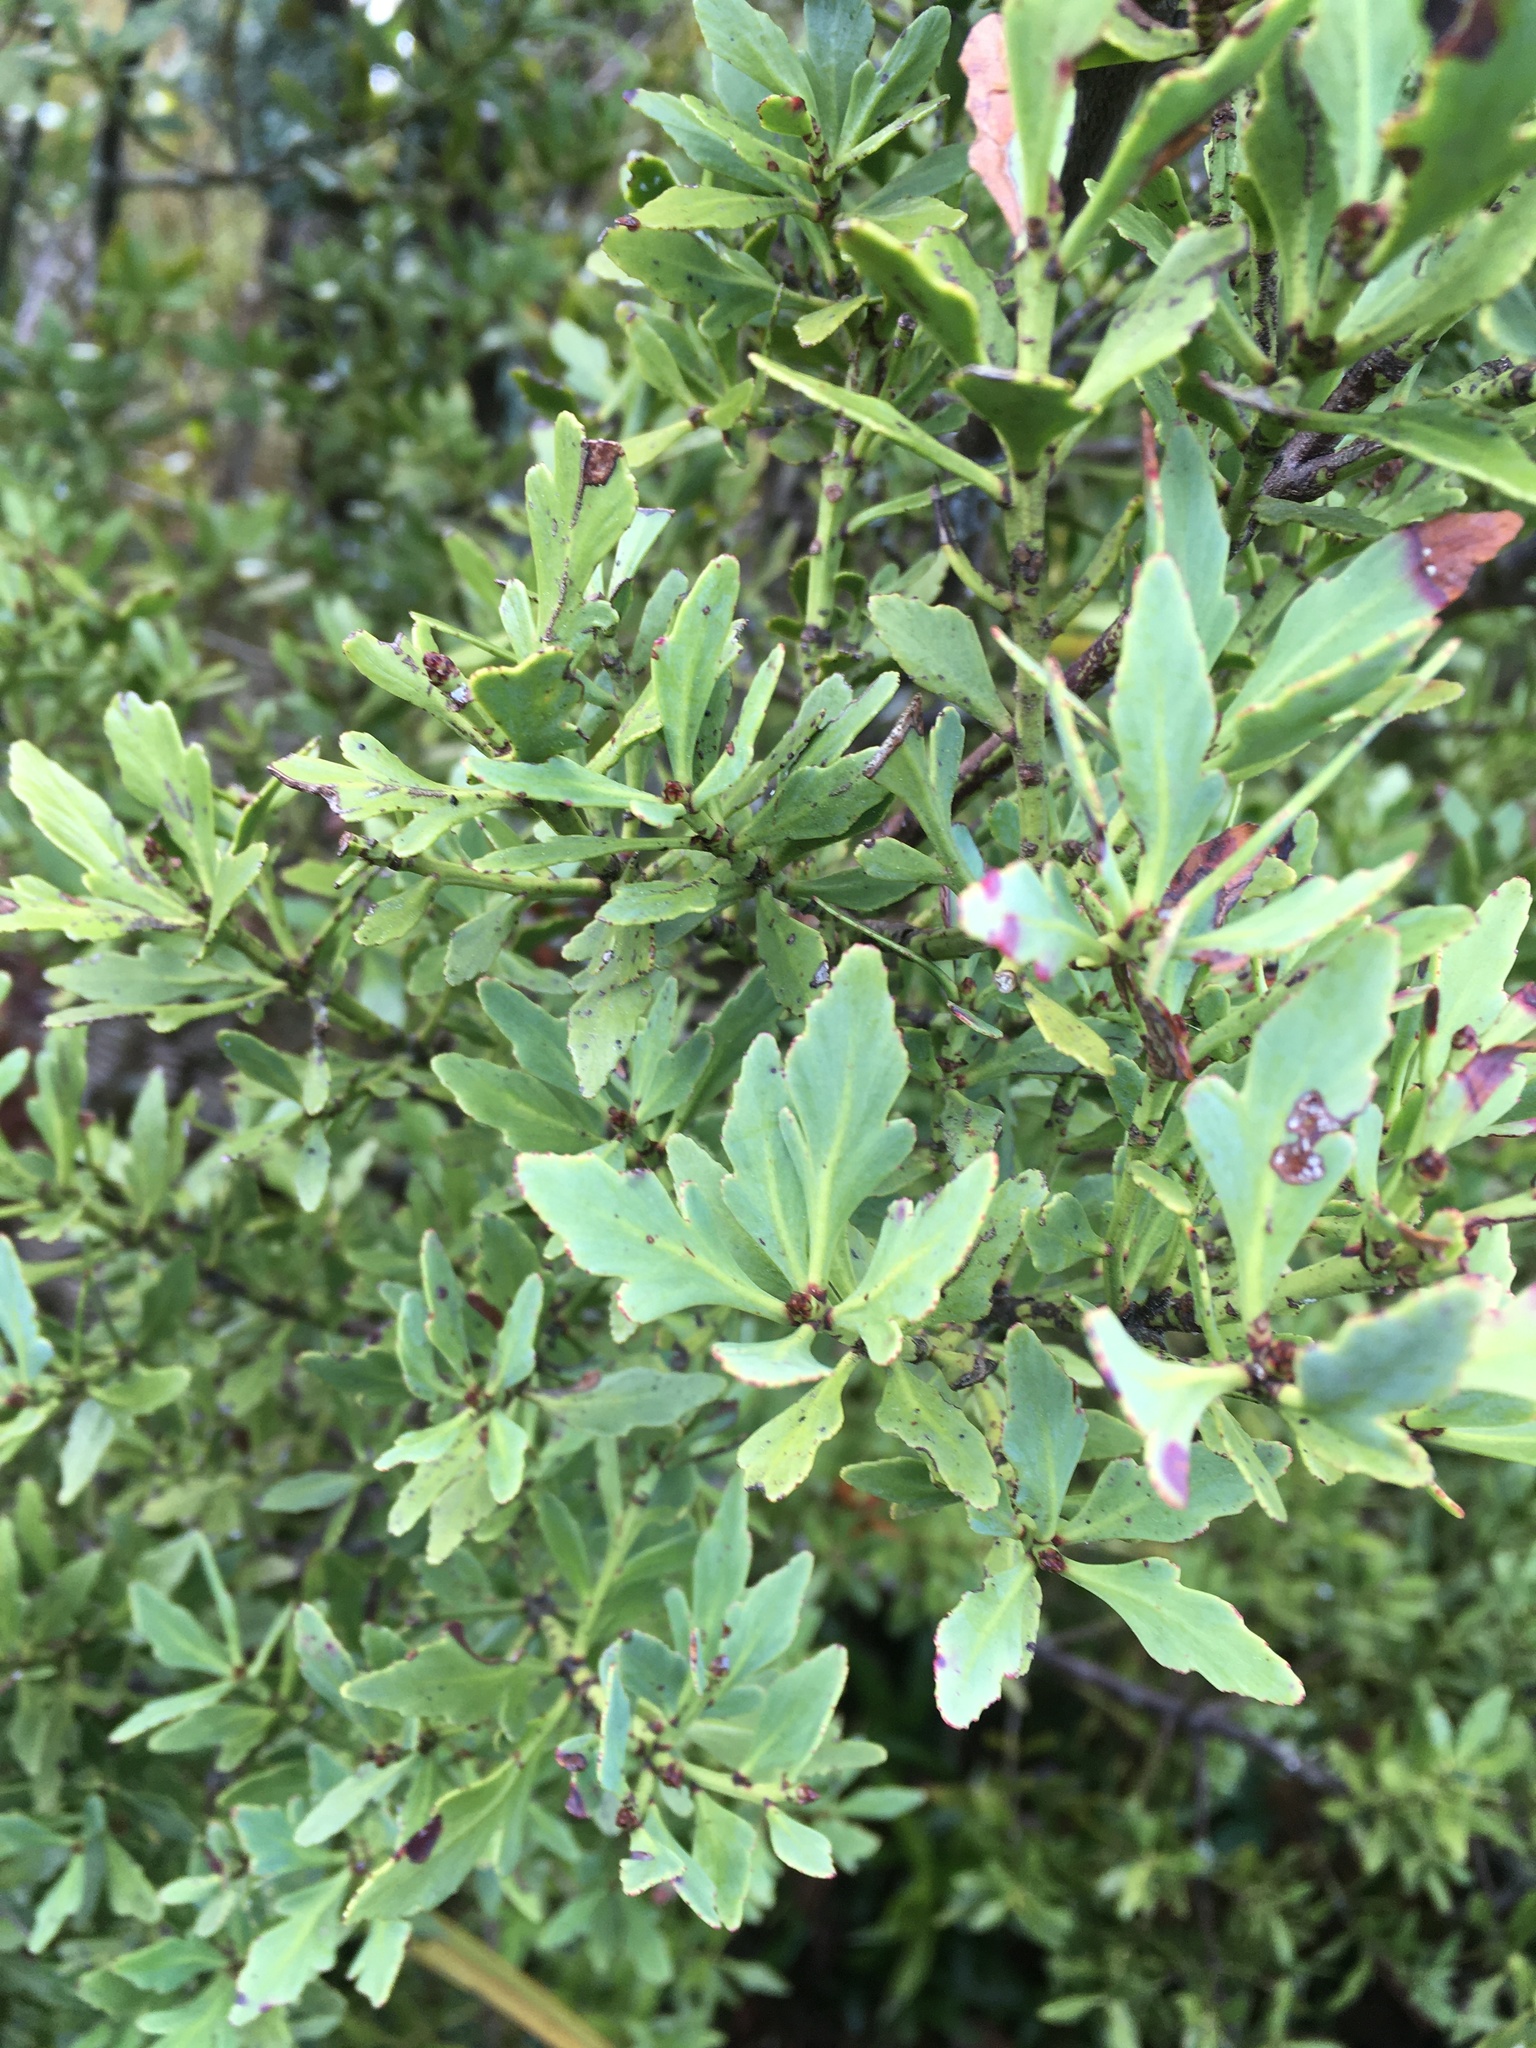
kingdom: Plantae
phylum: Tracheophyta
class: Pinopsida
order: Pinales
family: Phyllocladaceae
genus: Phyllocladus
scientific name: Phyllocladus trichomanoides
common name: Celery pine
